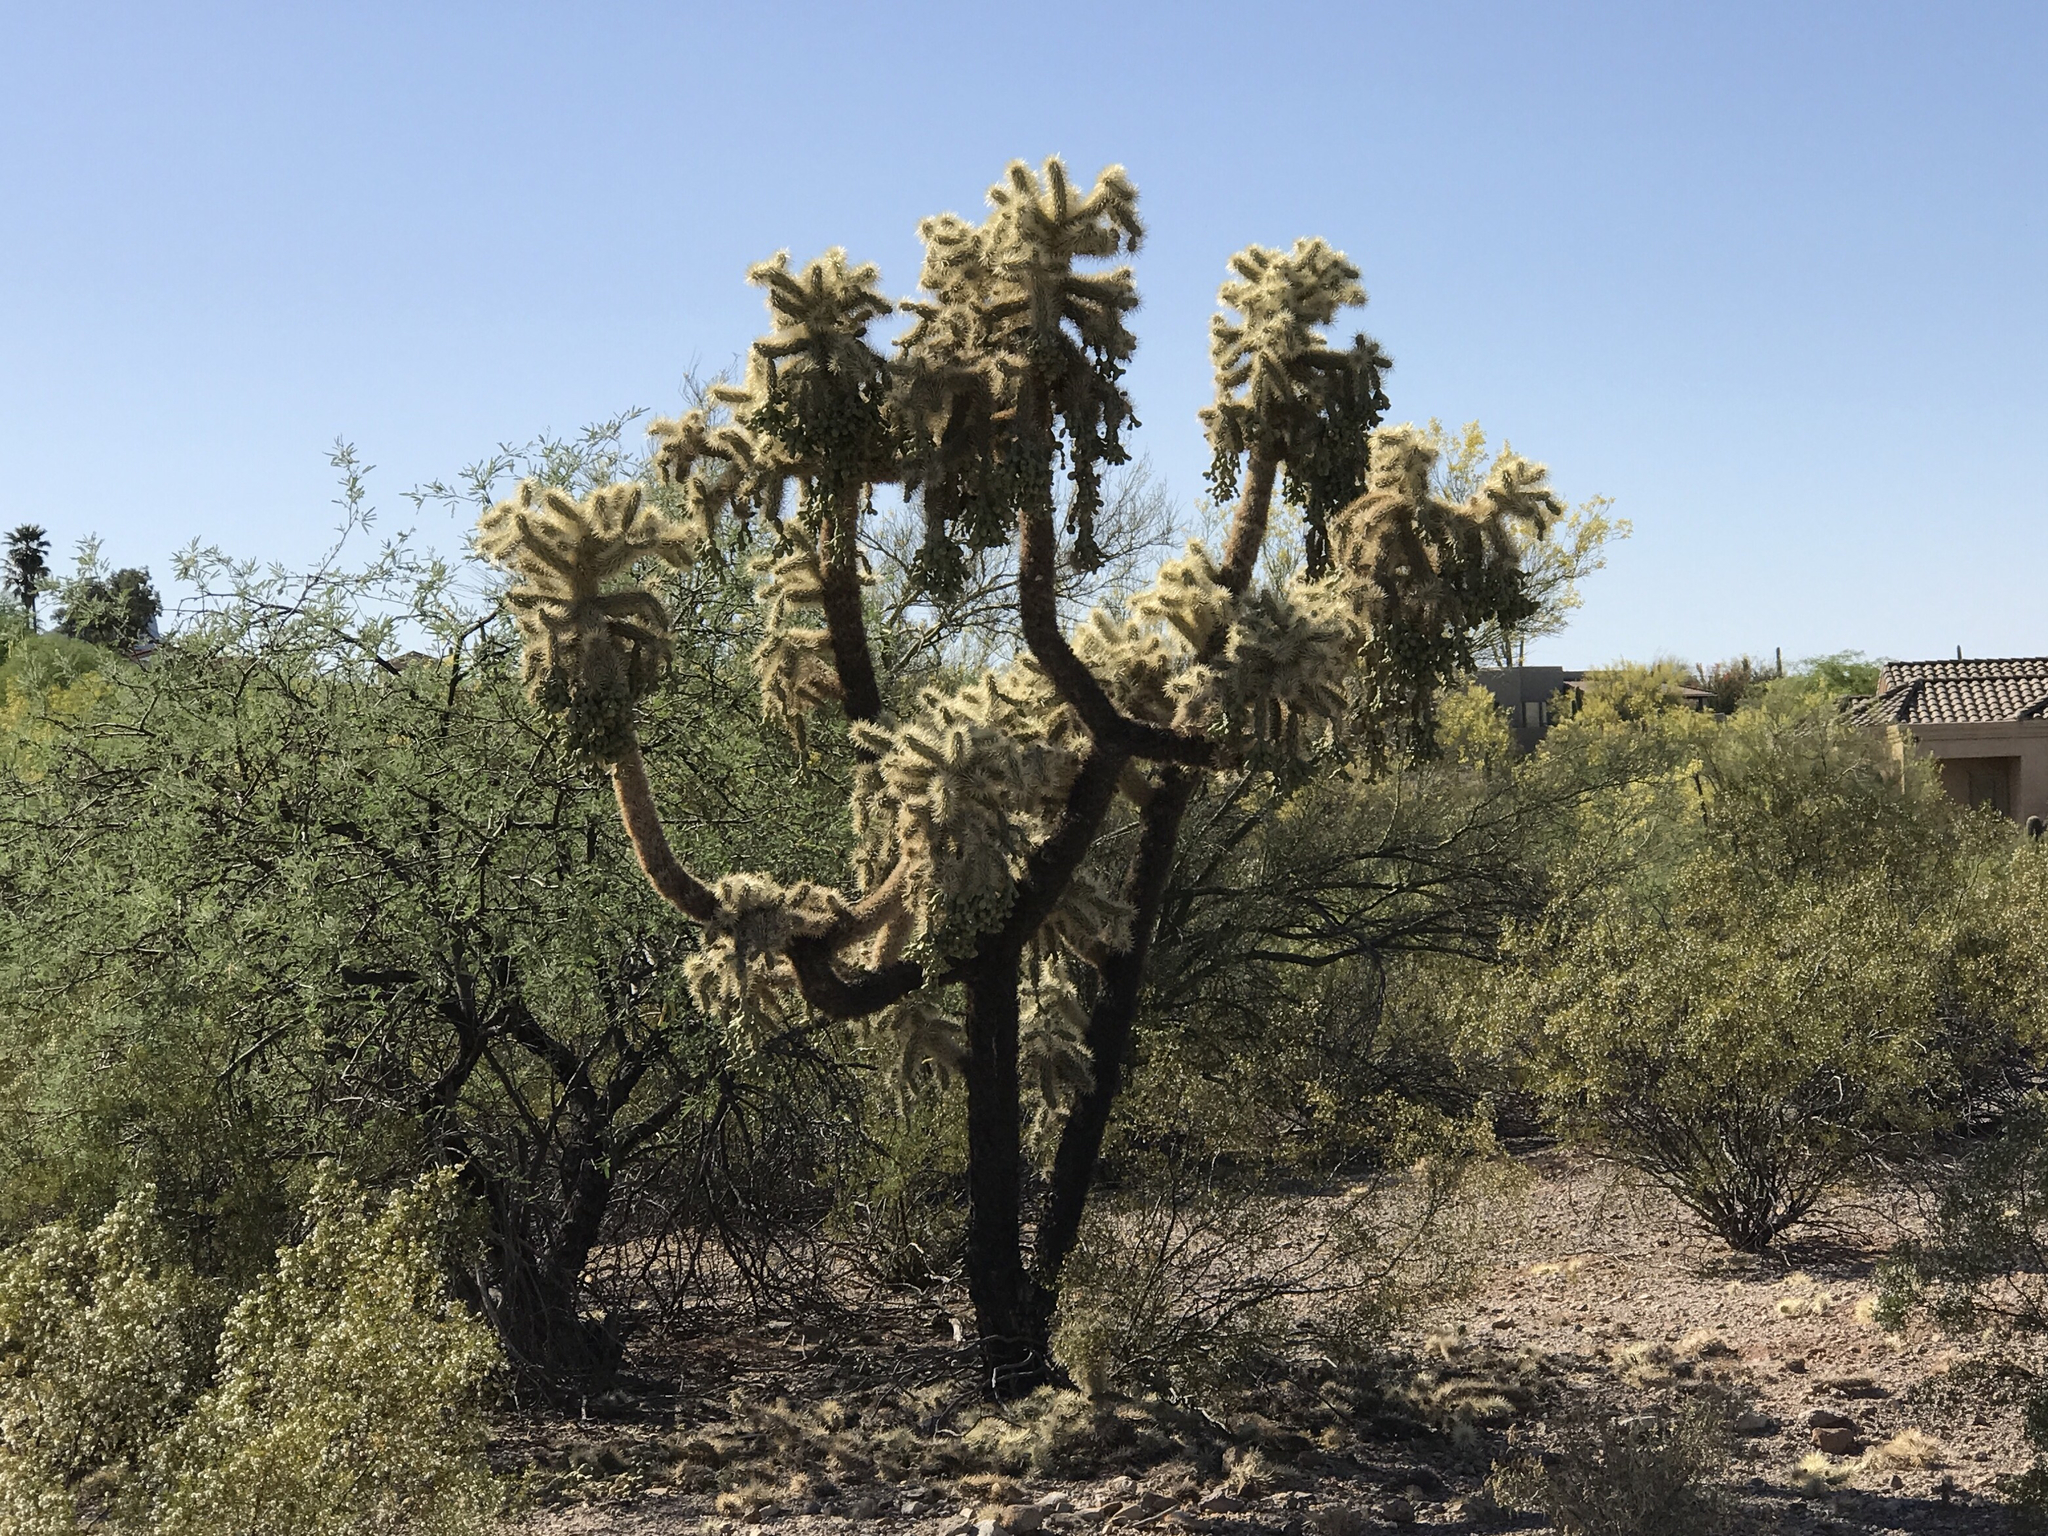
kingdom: Plantae
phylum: Tracheophyta
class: Magnoliopsida
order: Caryophyllales
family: Cactaceae
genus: Cylindropuntia
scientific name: Cylindropuntia fulgida
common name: Jumping cholla
